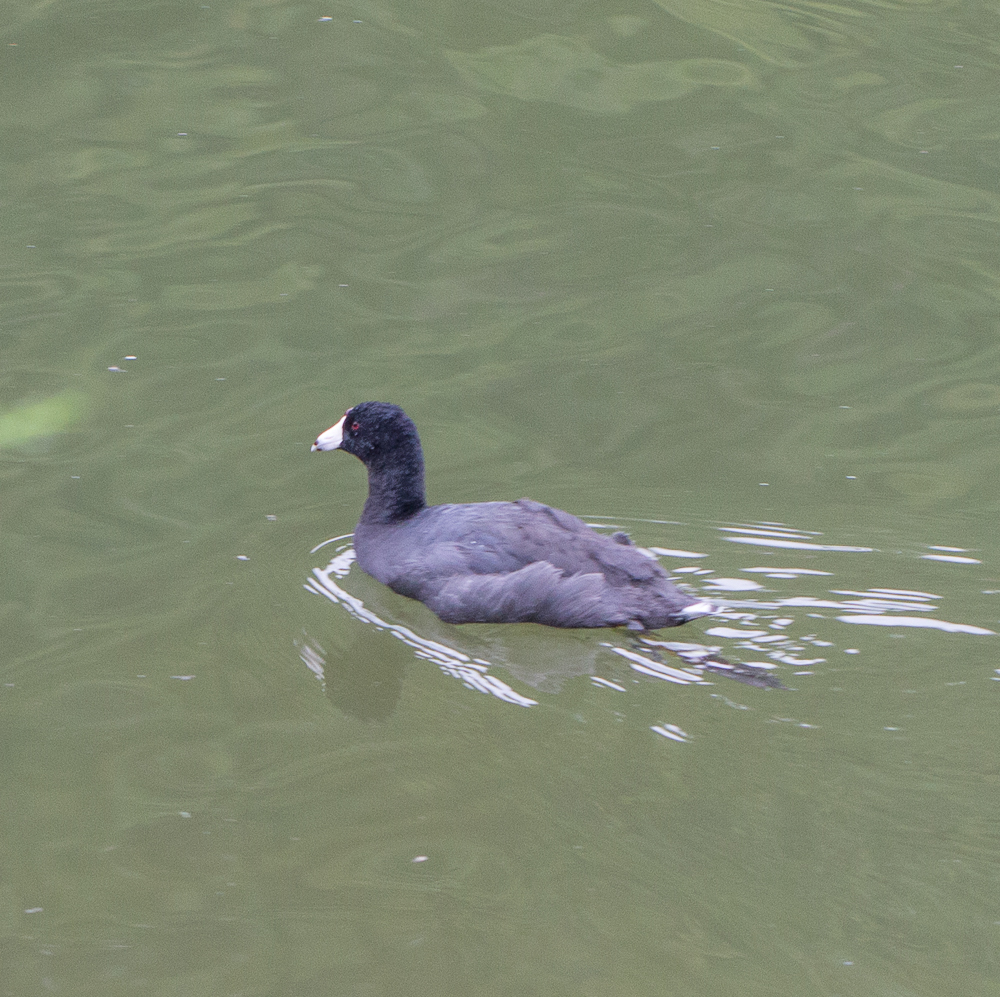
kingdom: Animalia
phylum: Chordata
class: Aves
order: Gruiformes
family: Rallidae
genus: Fulica
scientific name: Fulica americana
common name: American coot
